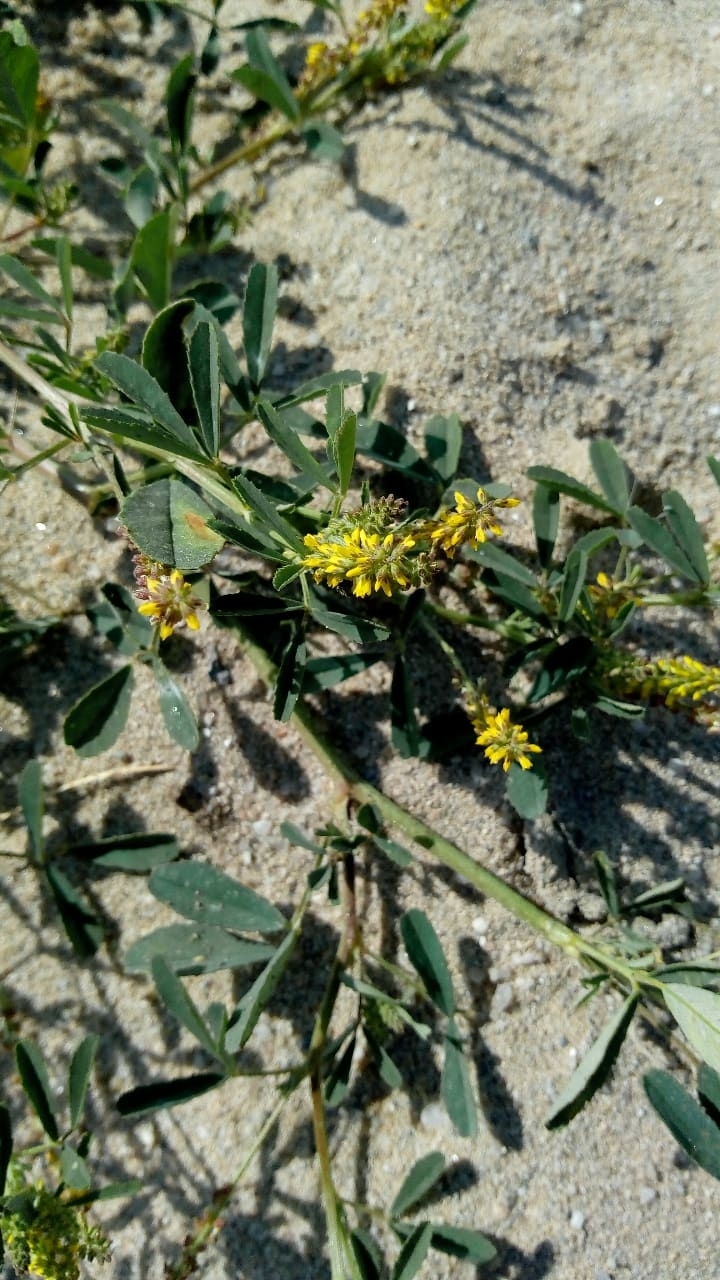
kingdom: Plantae
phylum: Tracheophyta
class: Magnoliopsida
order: Fabales
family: Fabaceae
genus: Melilotus
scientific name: Melilotus indicus
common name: Small melilot
